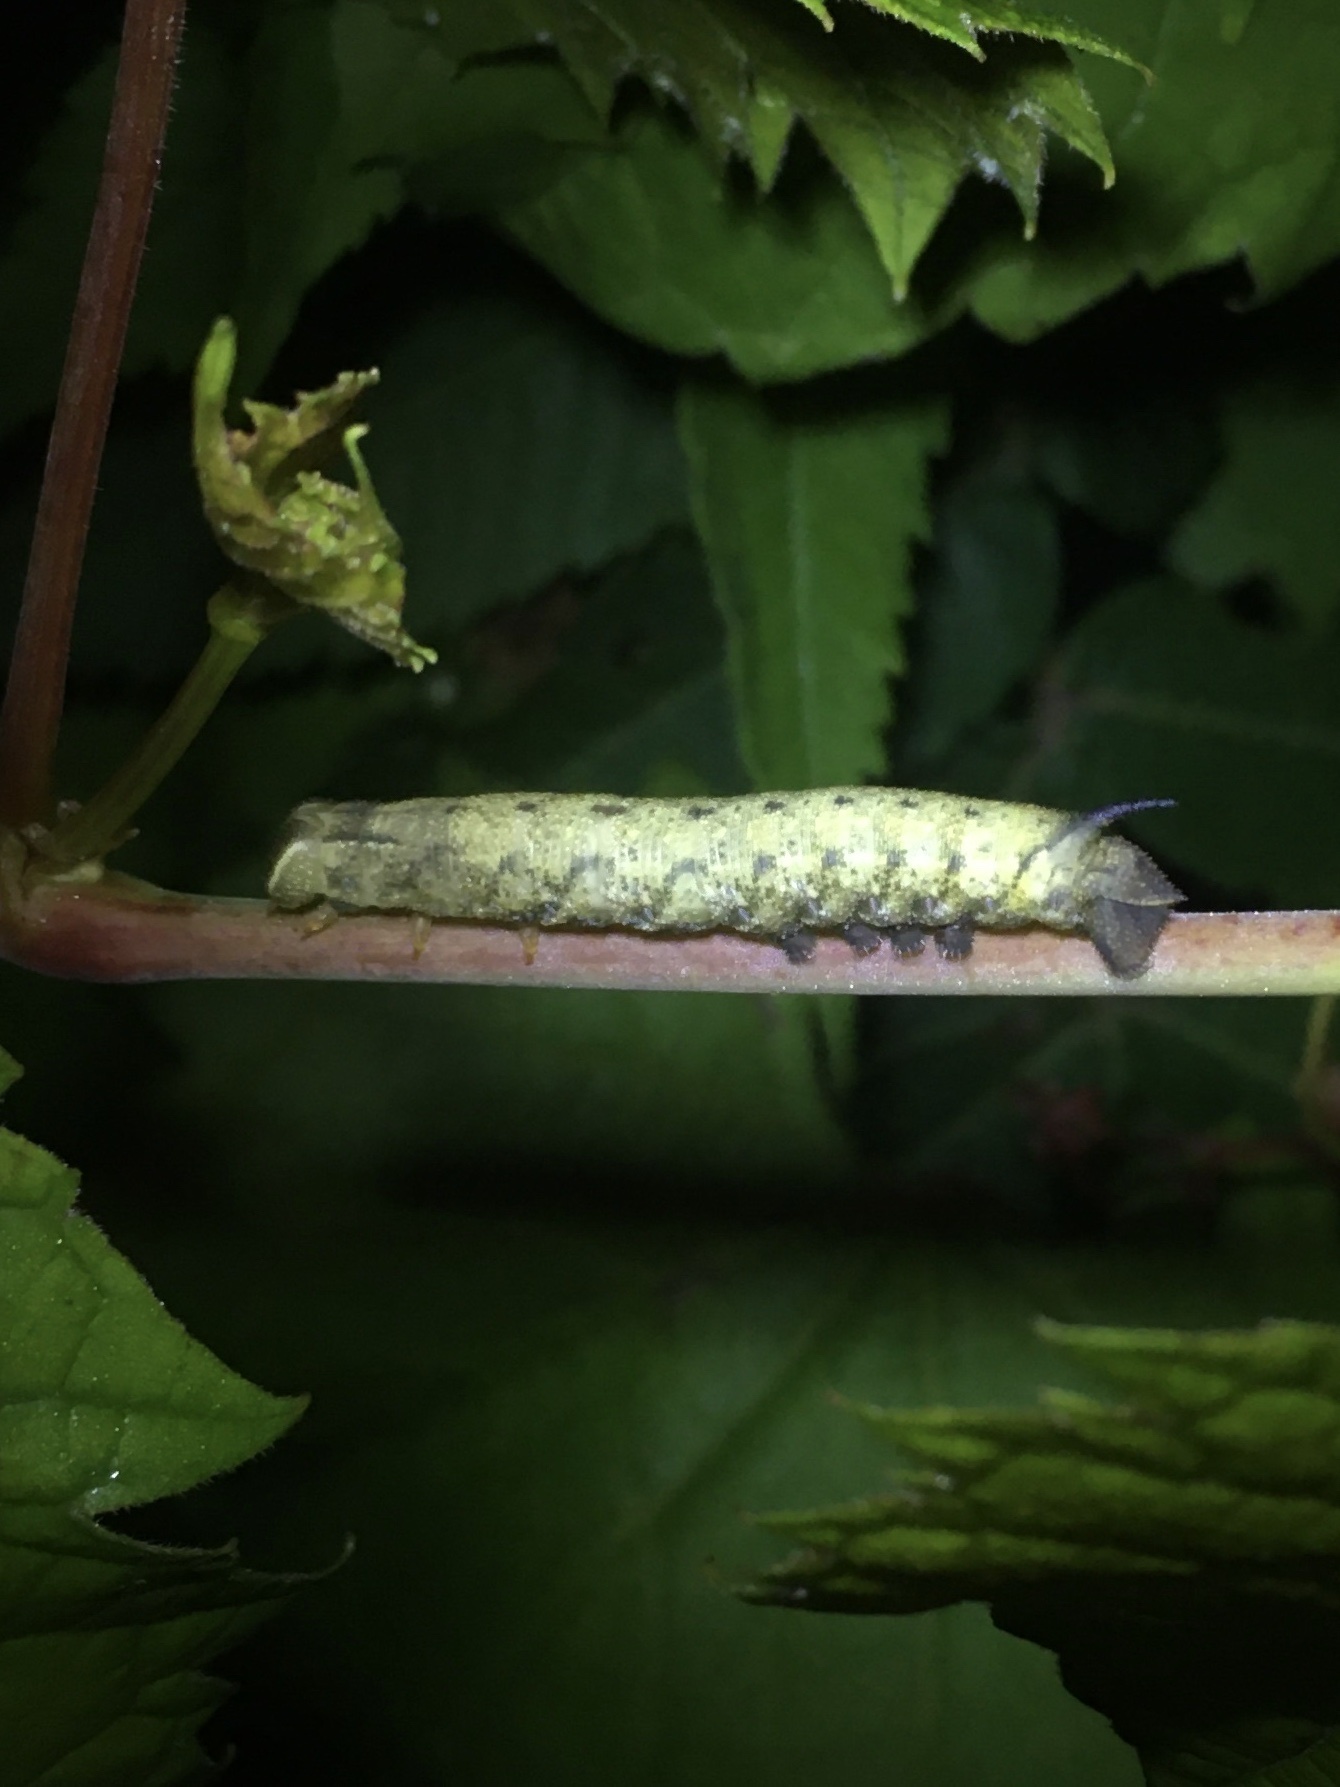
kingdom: Animalia
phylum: Arthropoda
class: Insecta
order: Lepidoptera
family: Sphingidae
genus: Amphion
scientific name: Amphion floridensis
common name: Nessus sphinx
